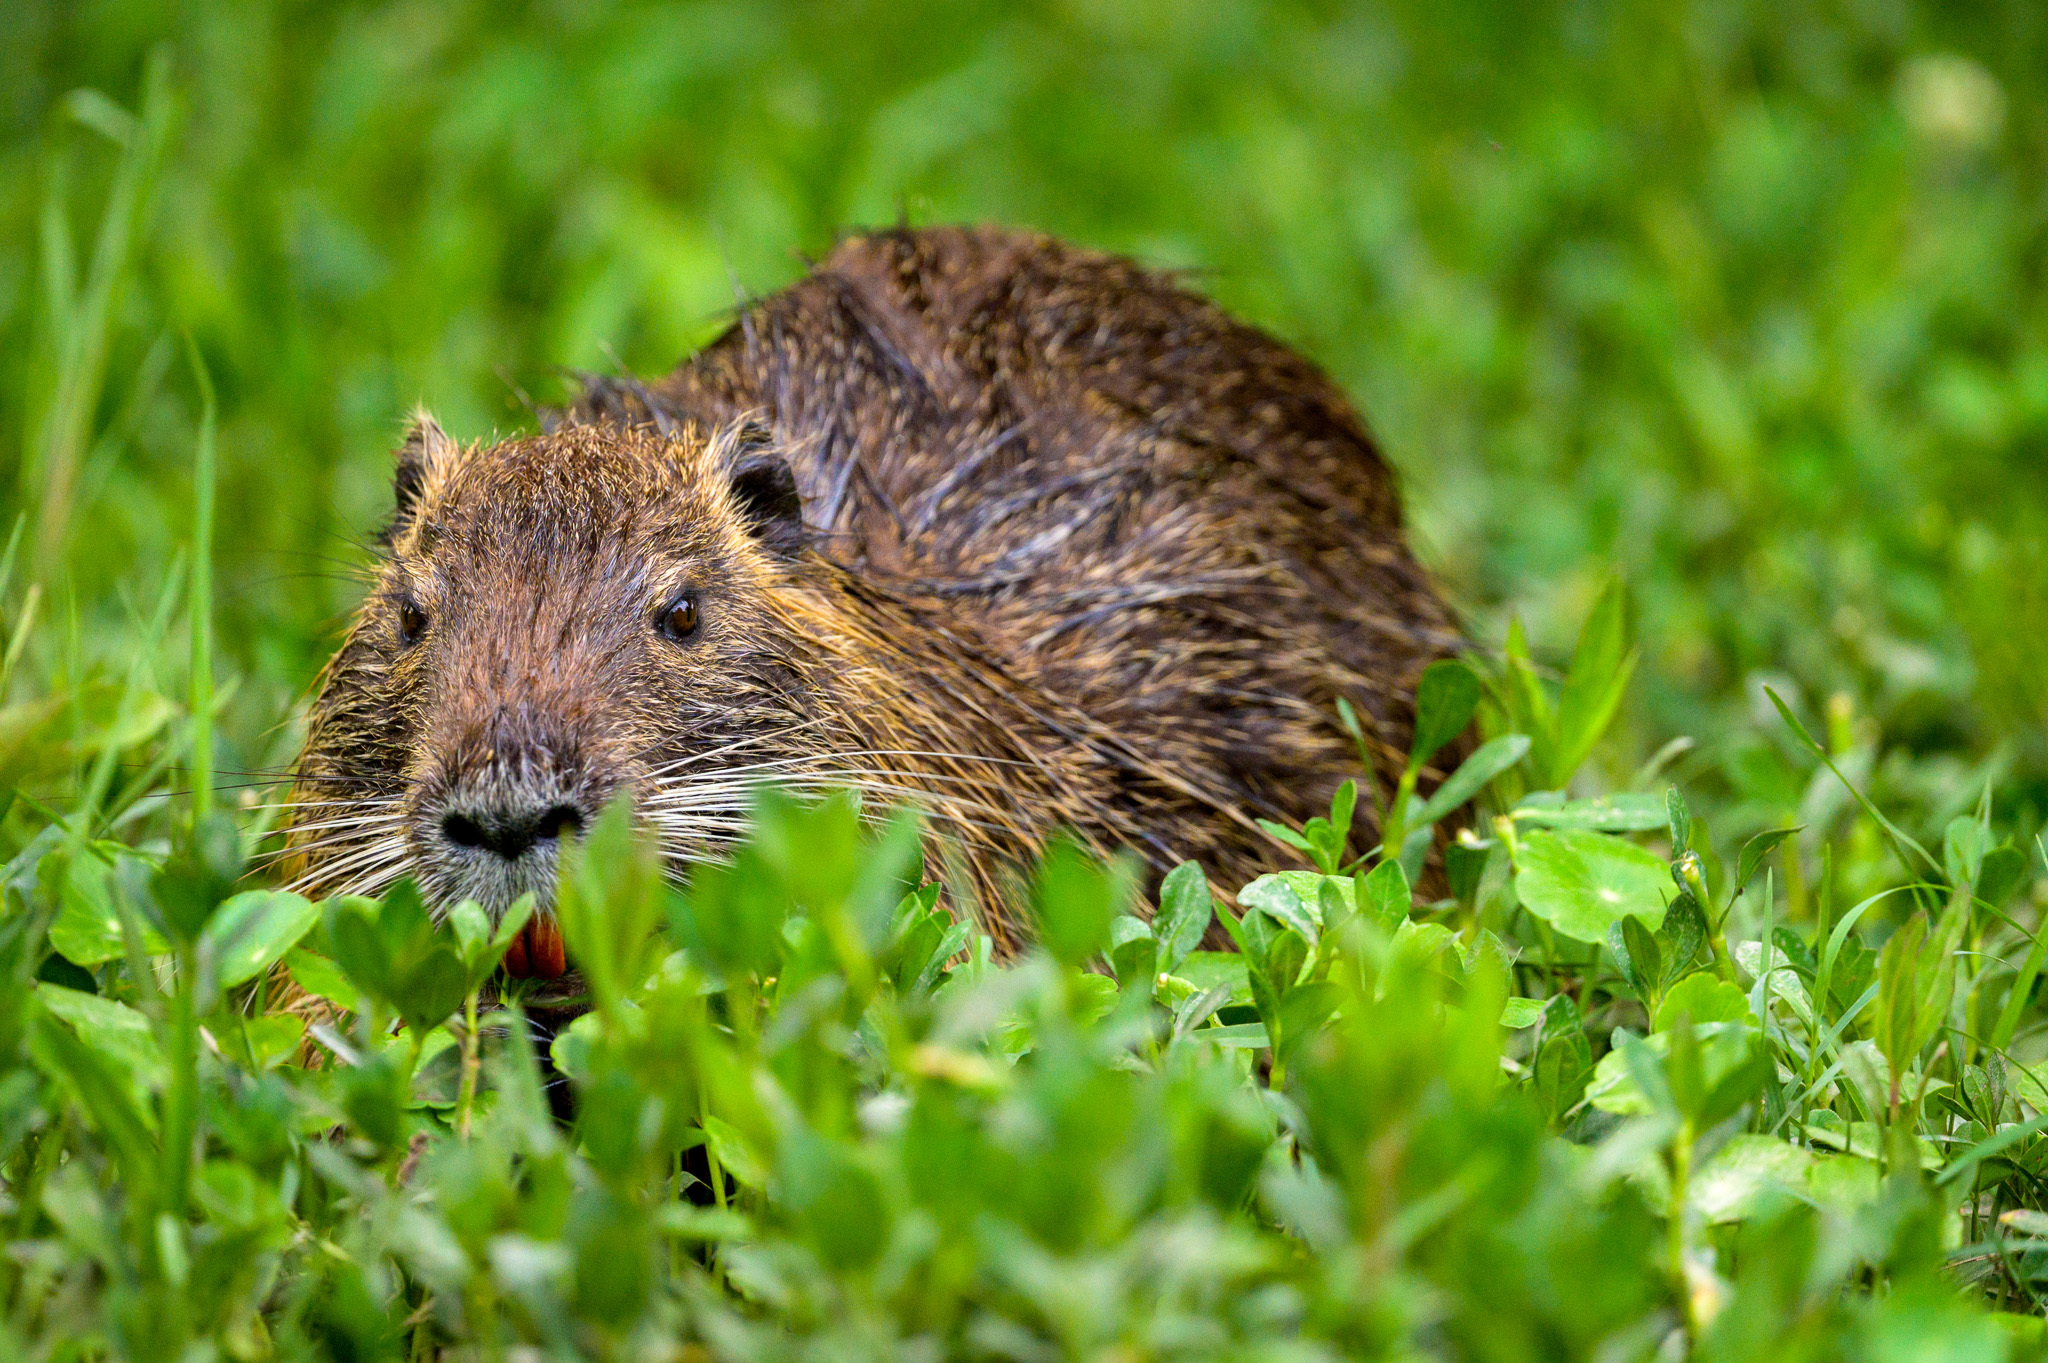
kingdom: Animalia
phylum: Chordata
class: Mammalia
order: Rodentia
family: Myocastoridae
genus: Myocastor
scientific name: Myocastor coypus
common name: Coypu
